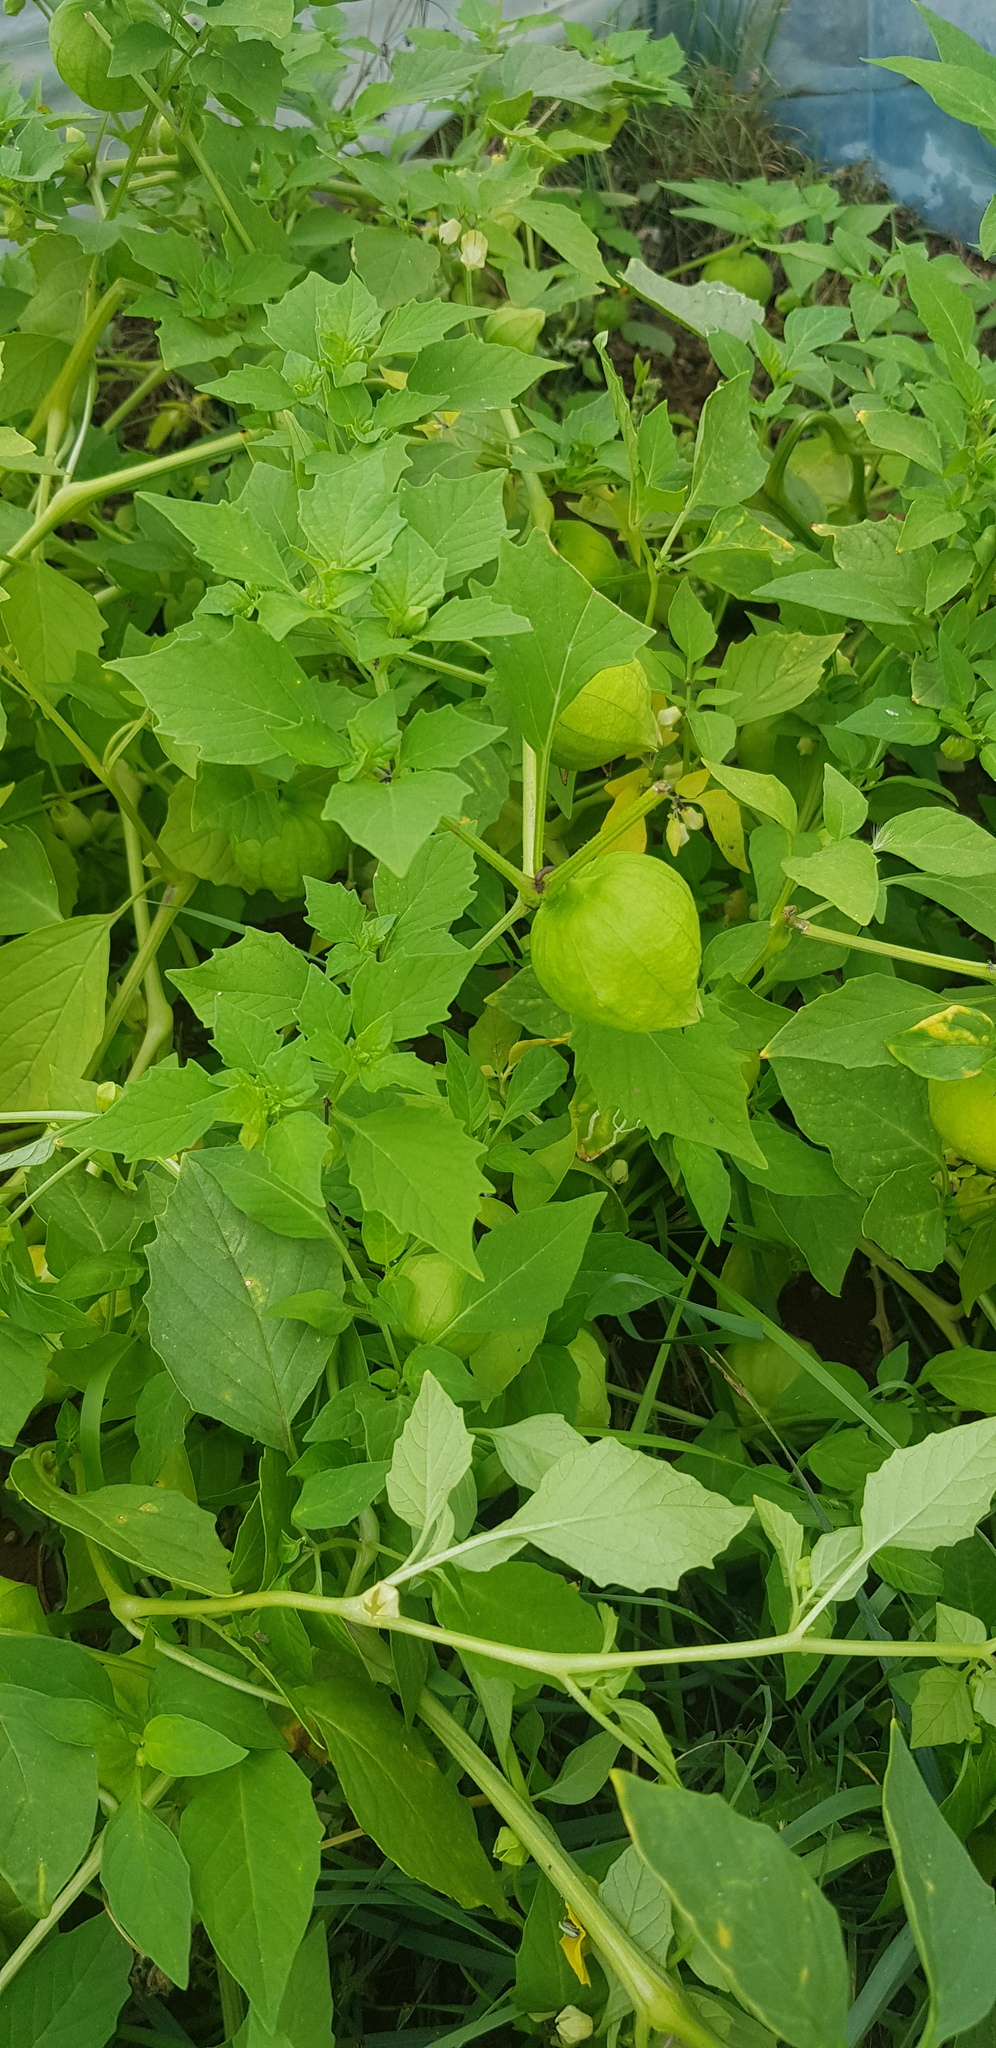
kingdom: Plantae
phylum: Tracheophyta
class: Magnoliopsida
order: Solanales
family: Solanaceae
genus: Solanum
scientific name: Solanum lycopersicum
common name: Garden tomato
